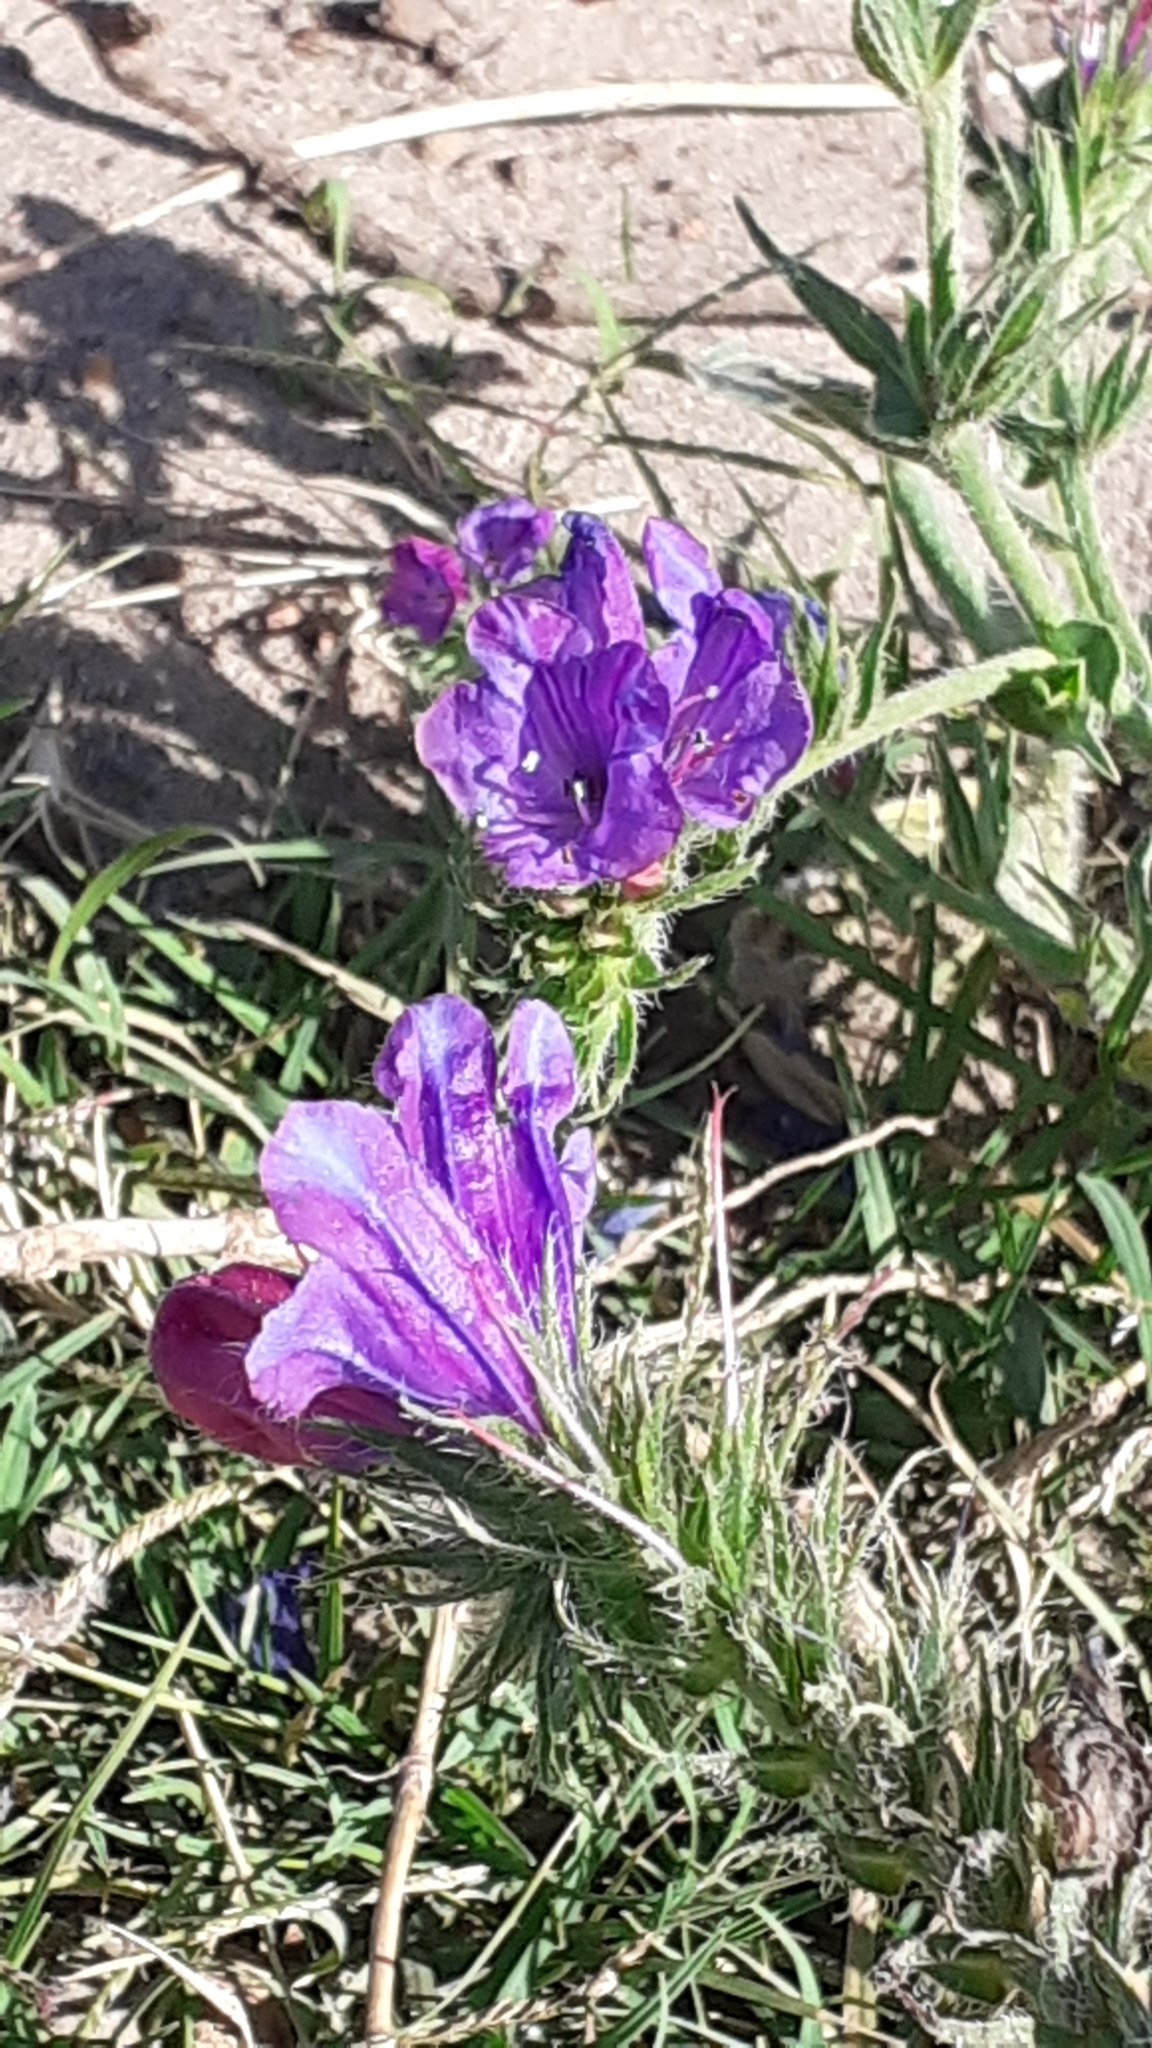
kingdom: Plantae
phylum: Tracheophyta
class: Magnoliopsida
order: Boraginales
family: Boraginaceae
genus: Echium
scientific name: Echium plantagineum
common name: Purple viper's-bugloss
